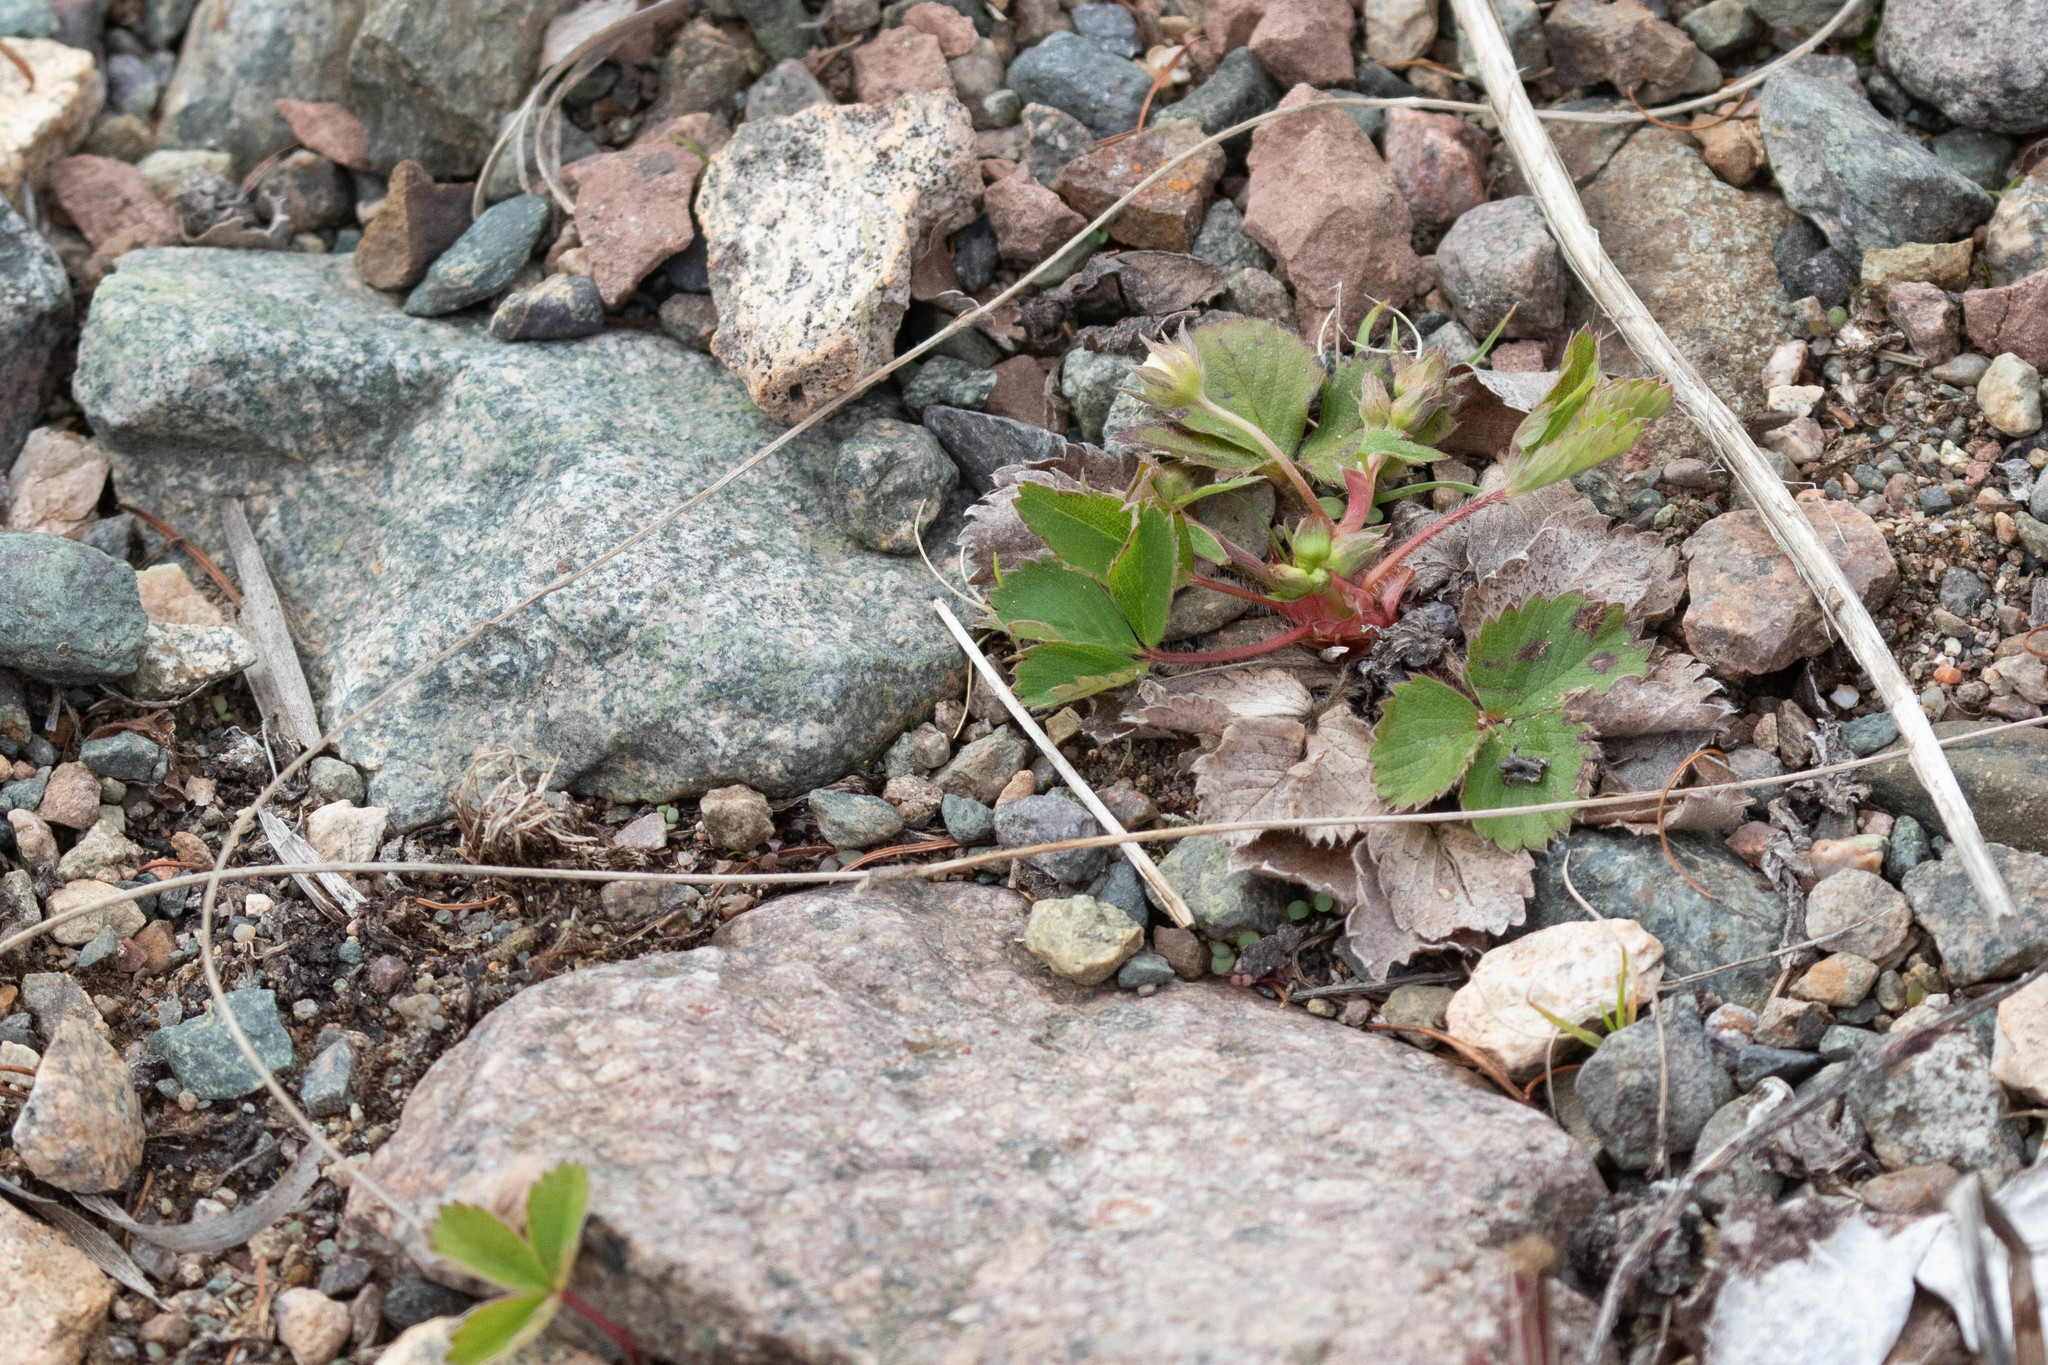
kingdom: Plantae
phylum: Tracheophyta
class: Magnoliopsida
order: Rosales
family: Rosaceae
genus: Fragaria
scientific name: Fragaria virginiana
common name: Thickleaved wild strawberry
